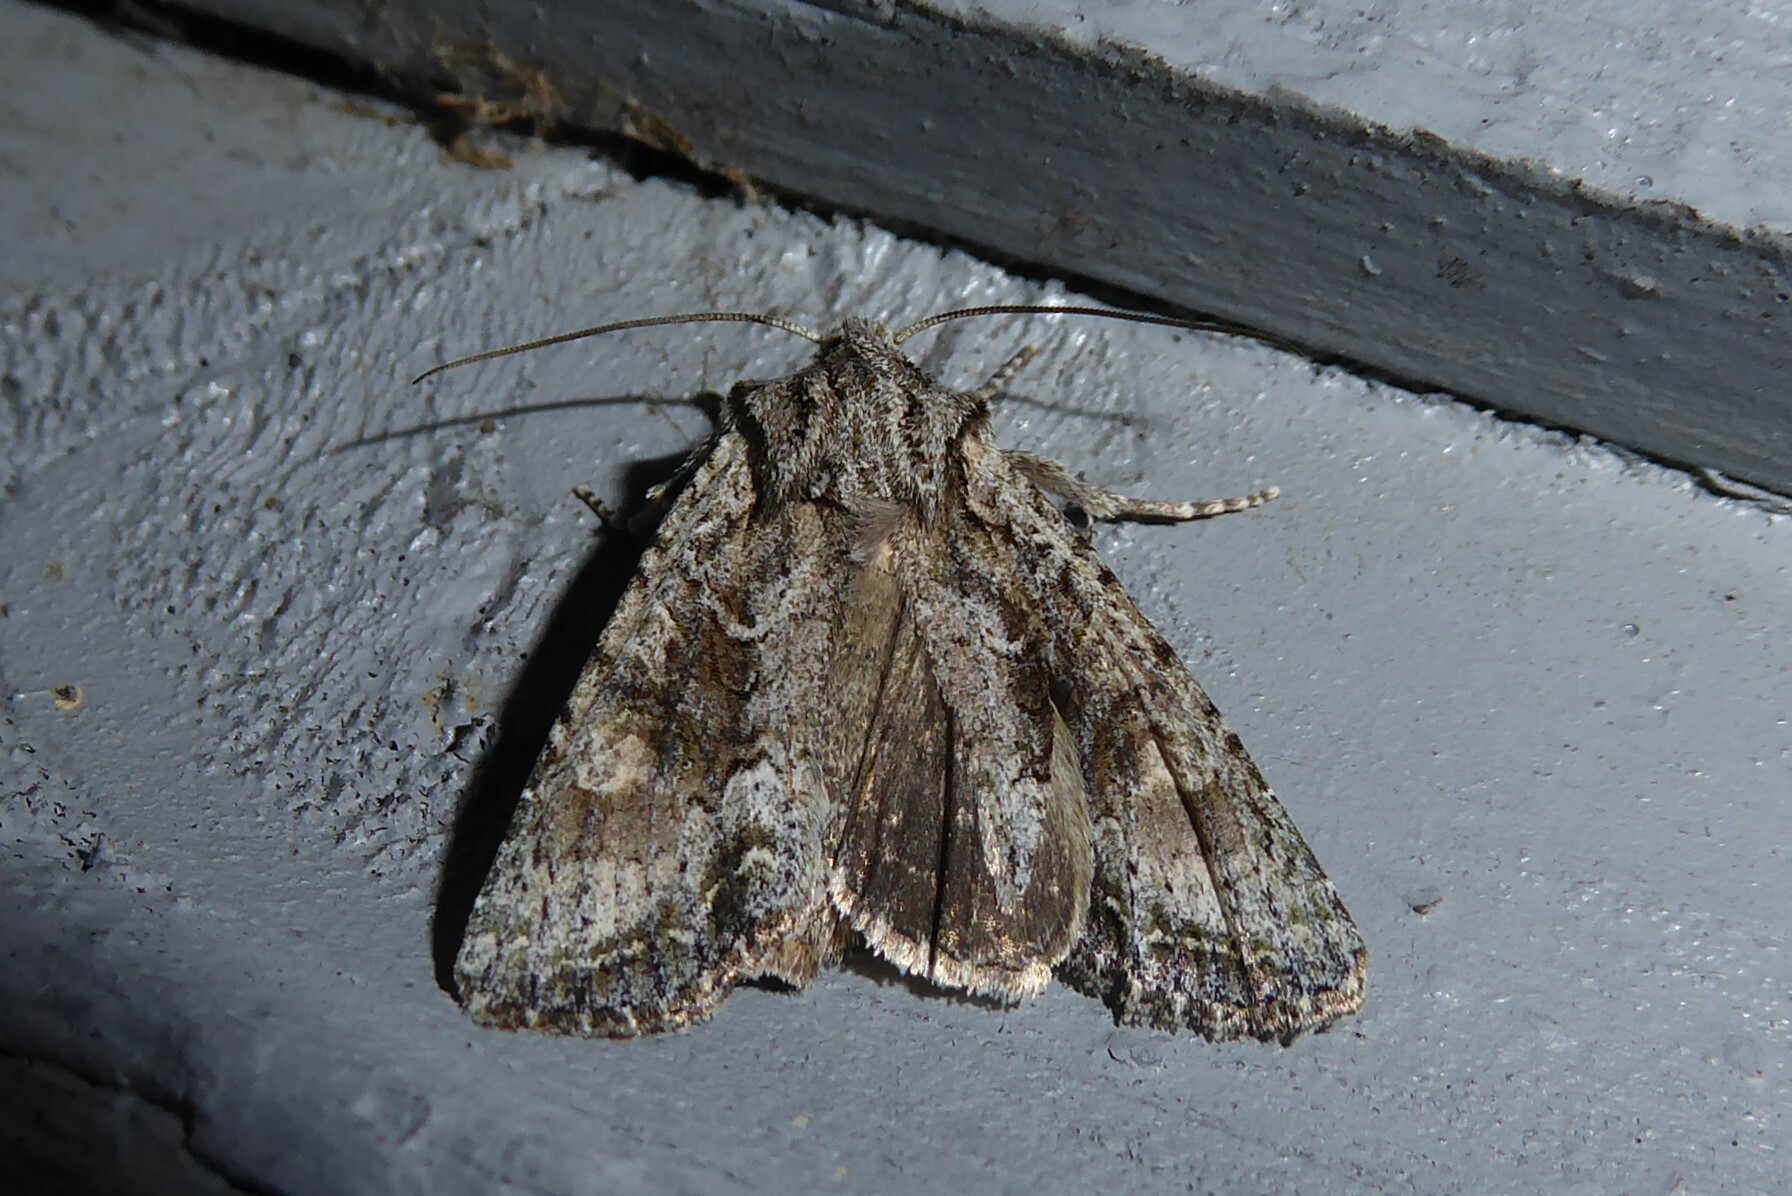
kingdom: Animalia
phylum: Arthropoda
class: Insecta
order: Lepidoptera
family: Noctuidae
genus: Ichneutica
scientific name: Ichneutica mutans
